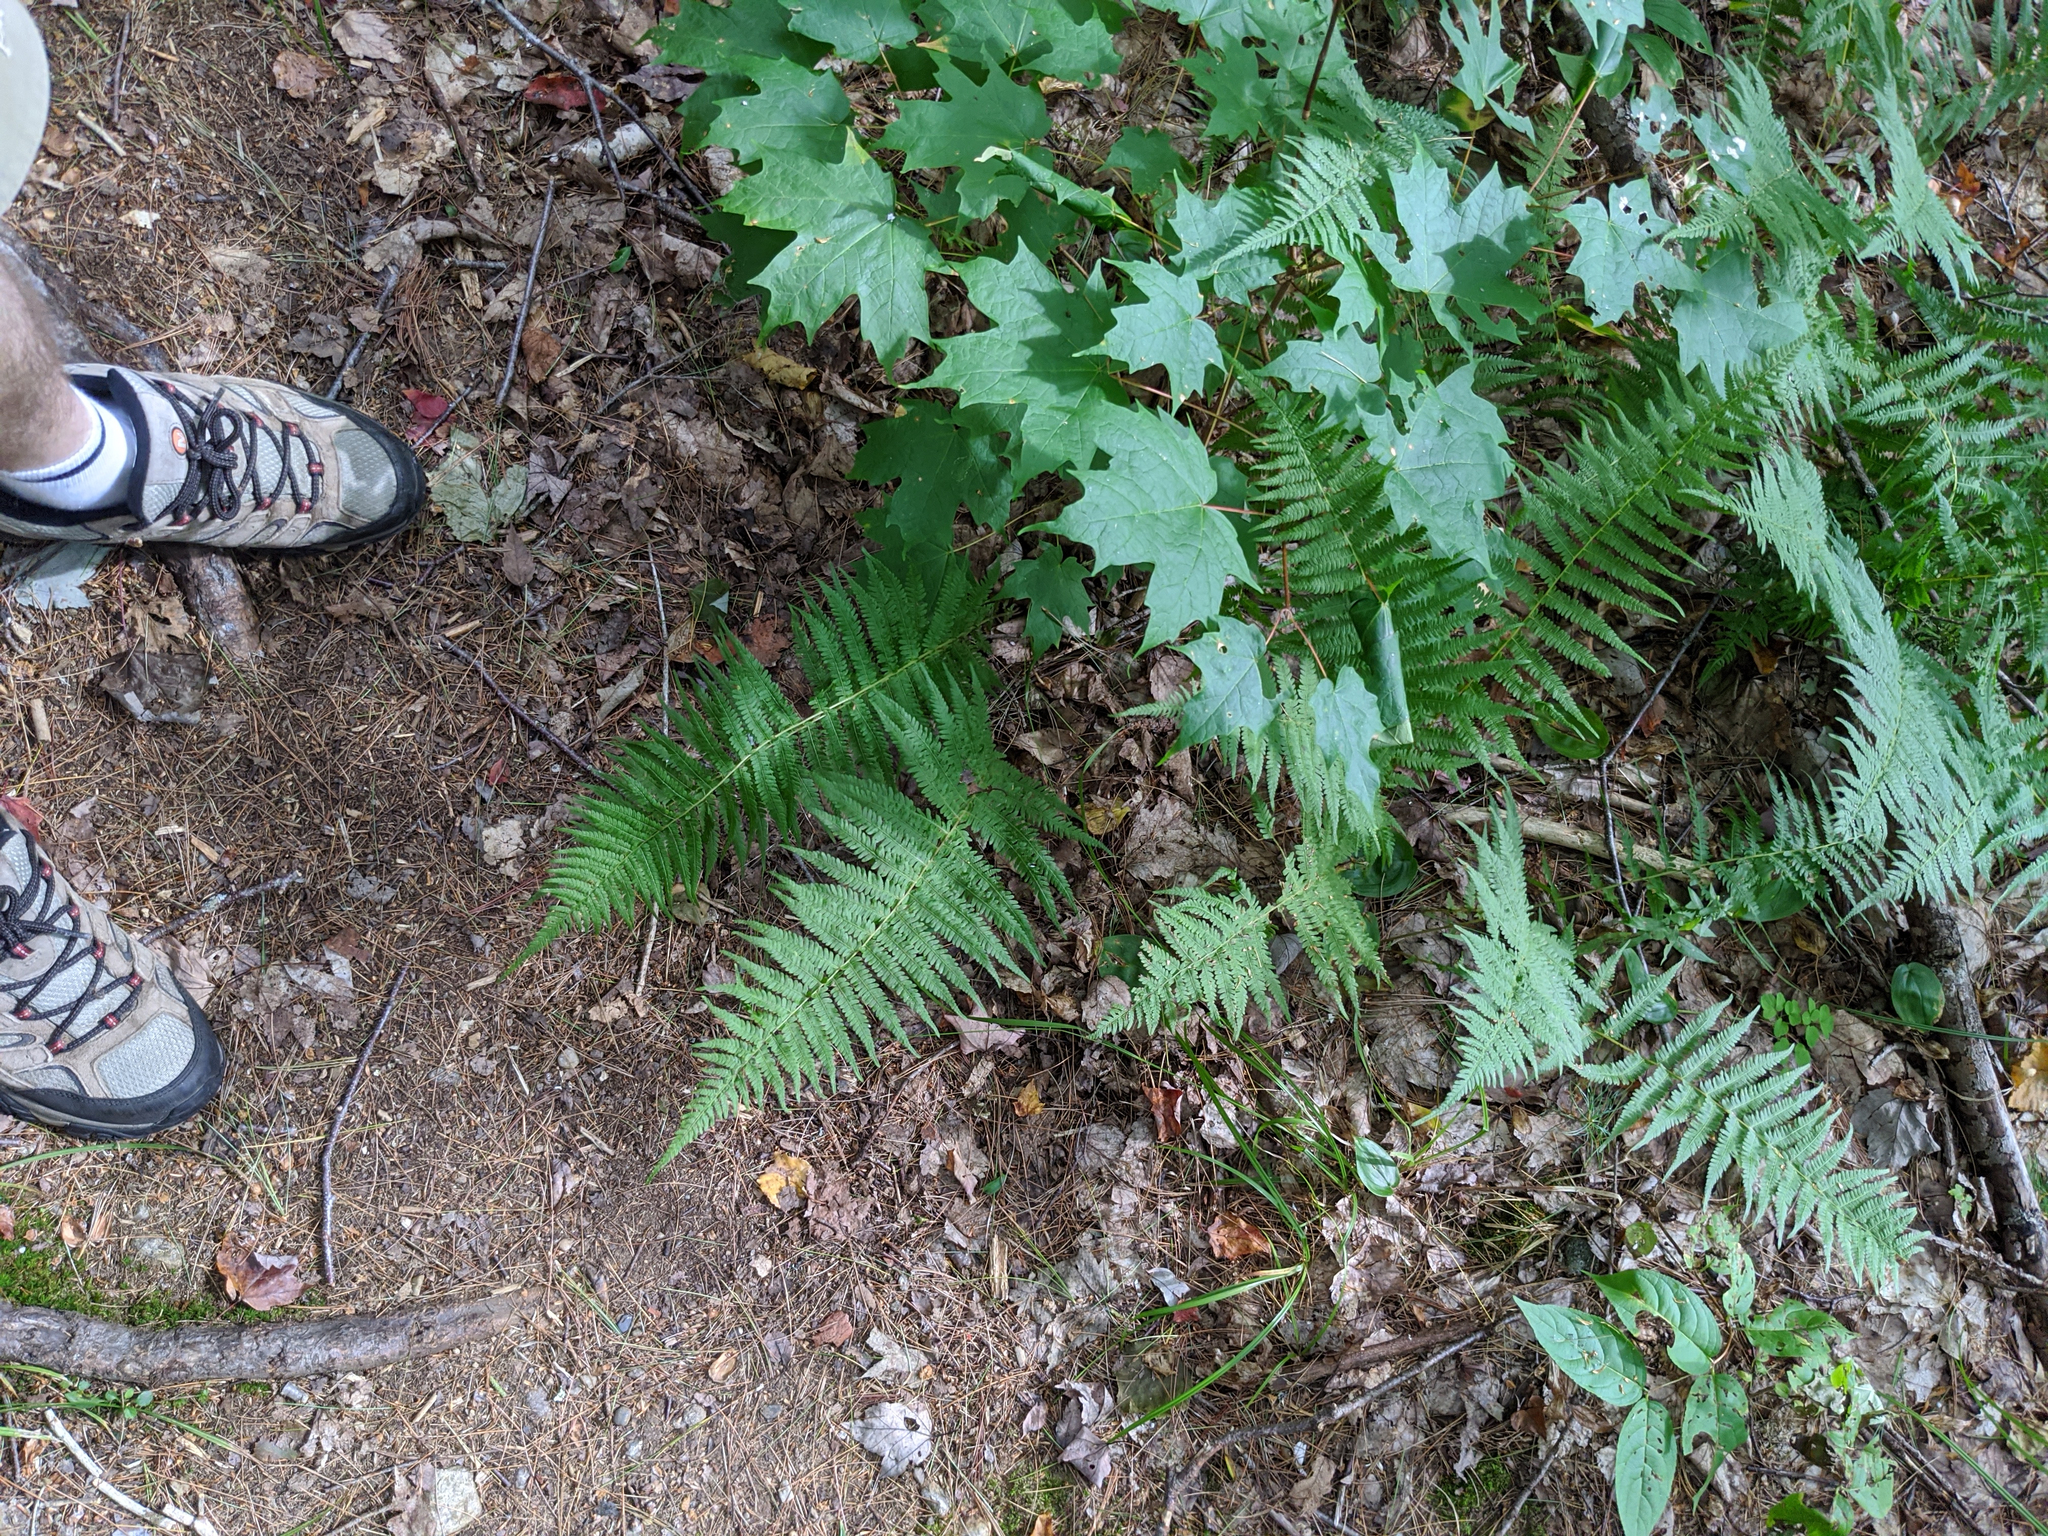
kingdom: Plantae
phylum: Tracheophyta
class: Polypodiopsida
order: Polypodiales
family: Thelypteridaceae
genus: Amauropelta
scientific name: Amauropelta noveboracensis
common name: New york fern
